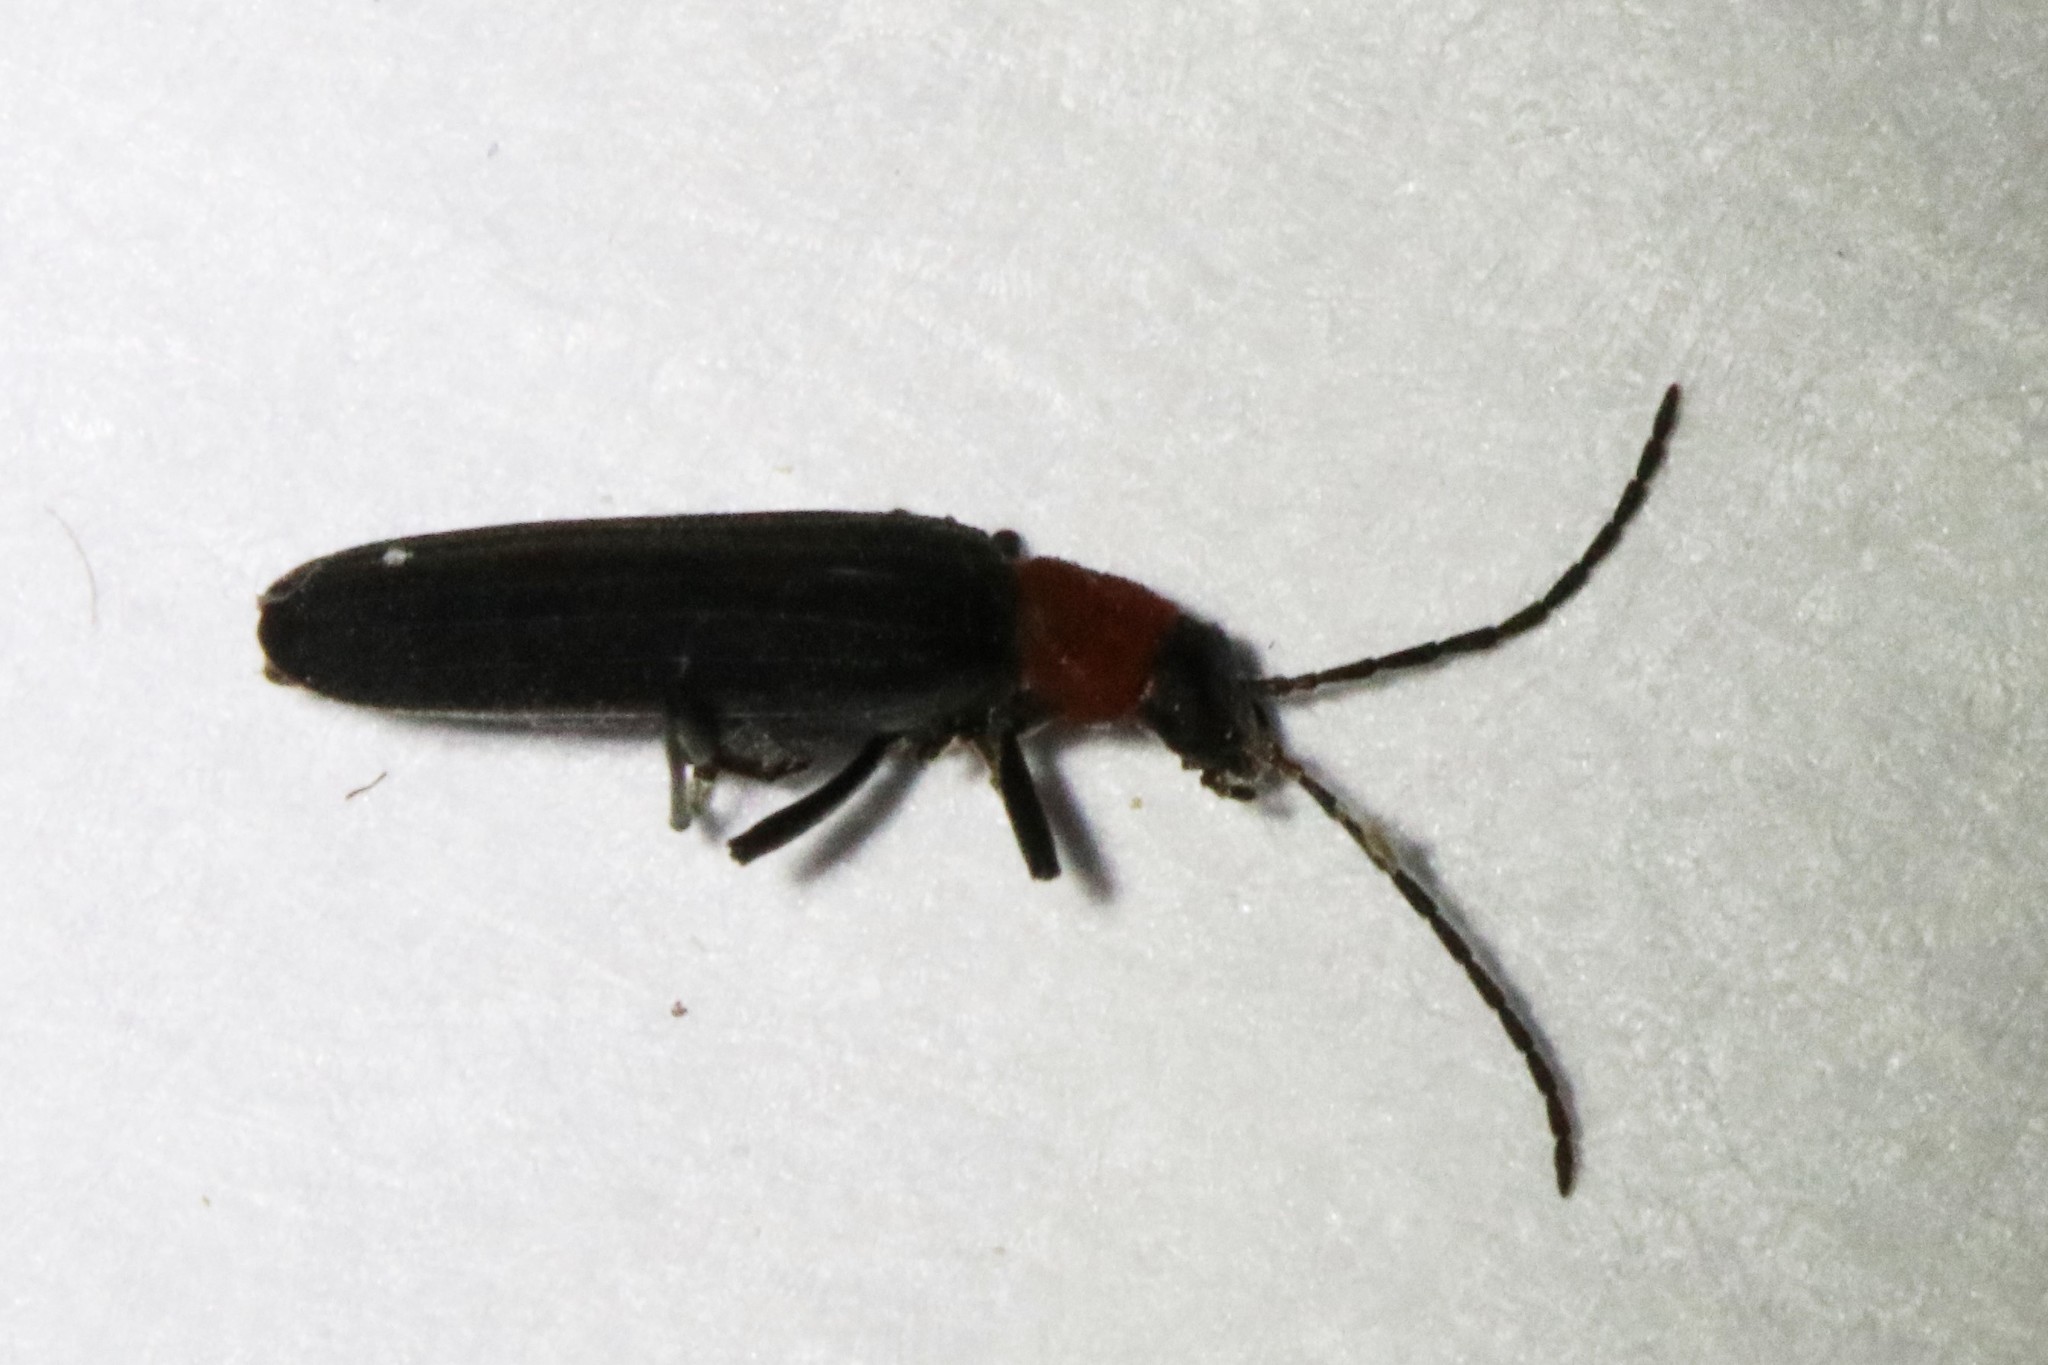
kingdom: Animalia
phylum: Arthropoda
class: Insecta
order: Coleoptera
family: Oedemeridae
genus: Ischnomera
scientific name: Ischnomera
